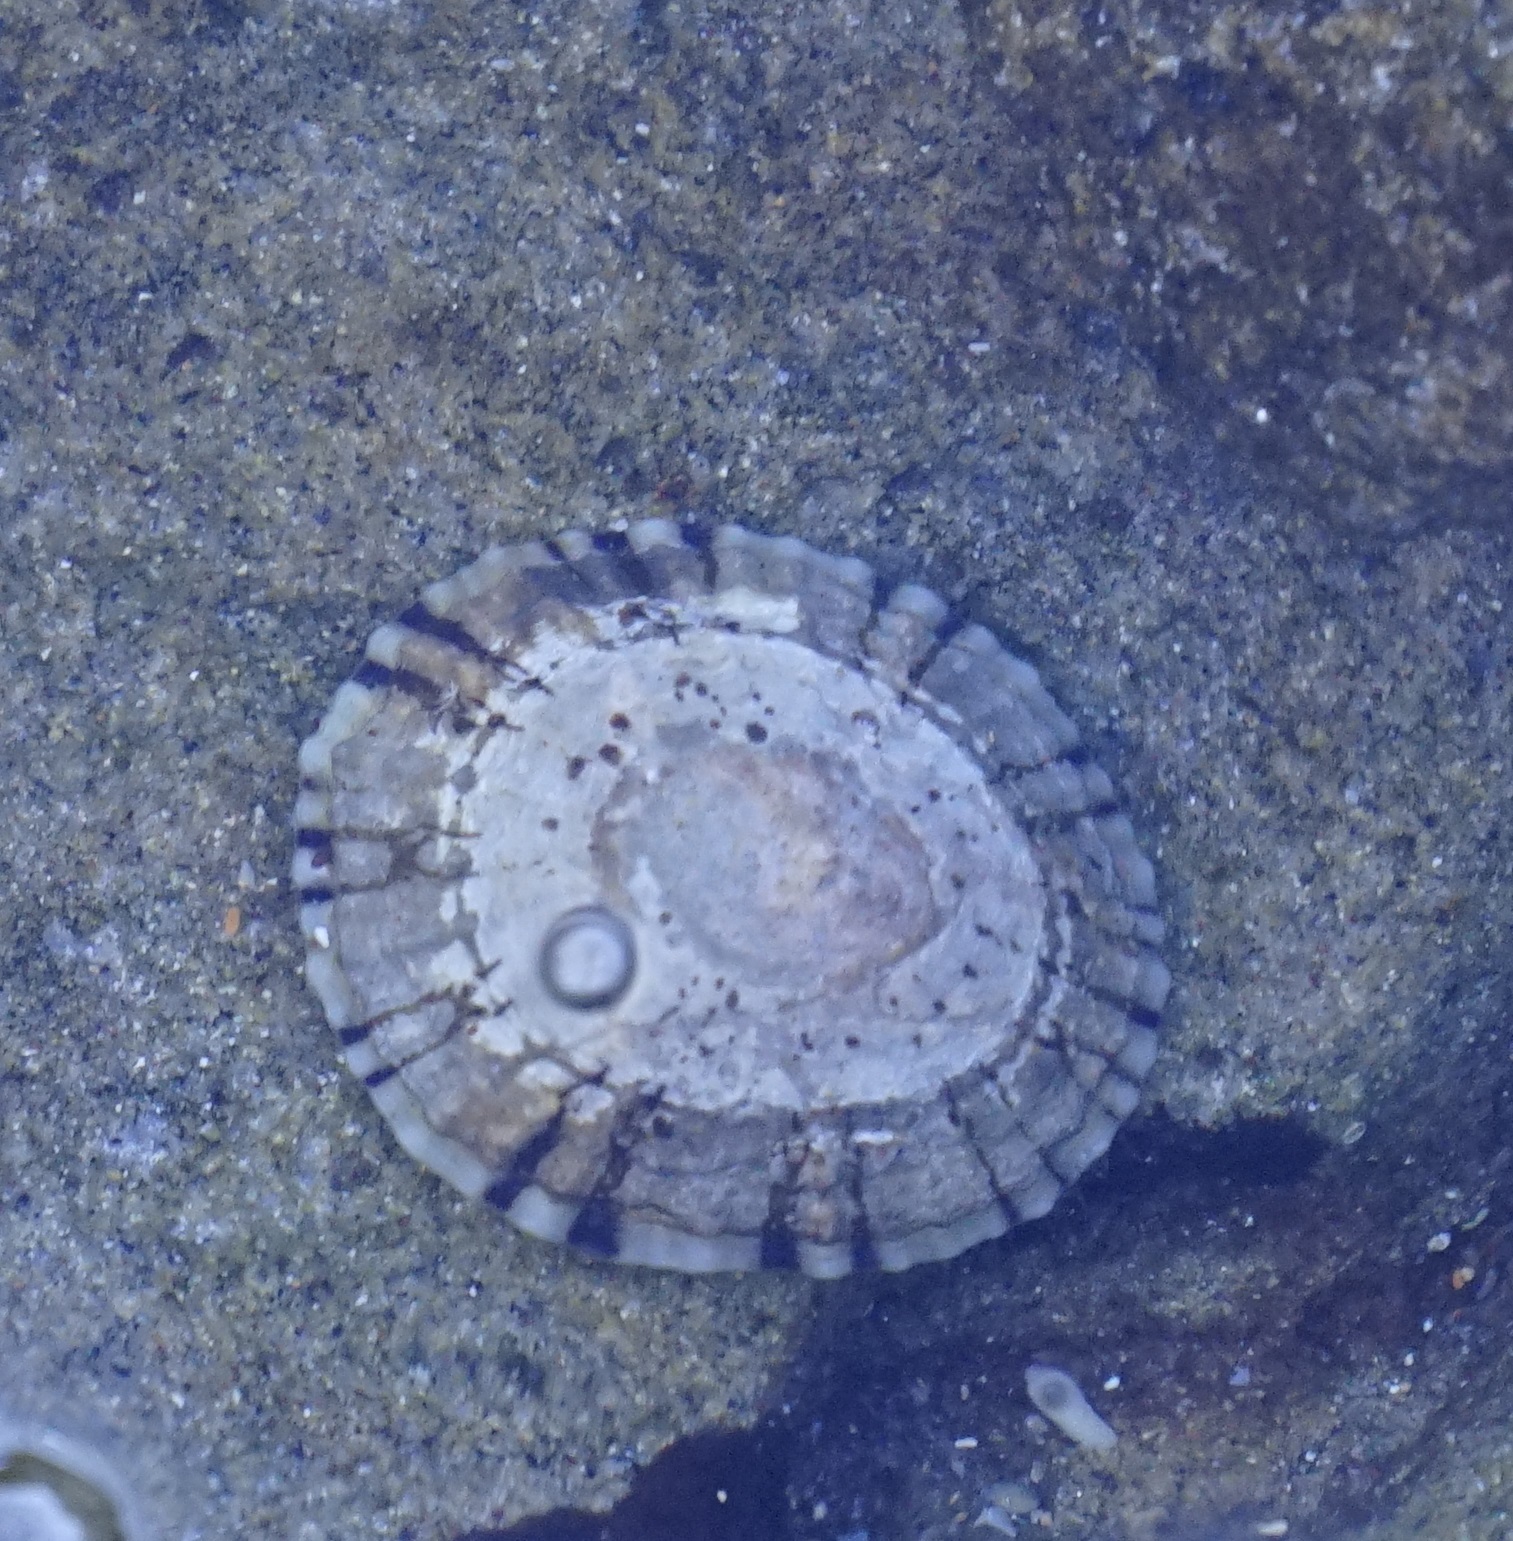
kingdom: Animalia
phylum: Mollusca
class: Gastropoda
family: Nacellidae
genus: Cellana
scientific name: Cellana tramoserica
